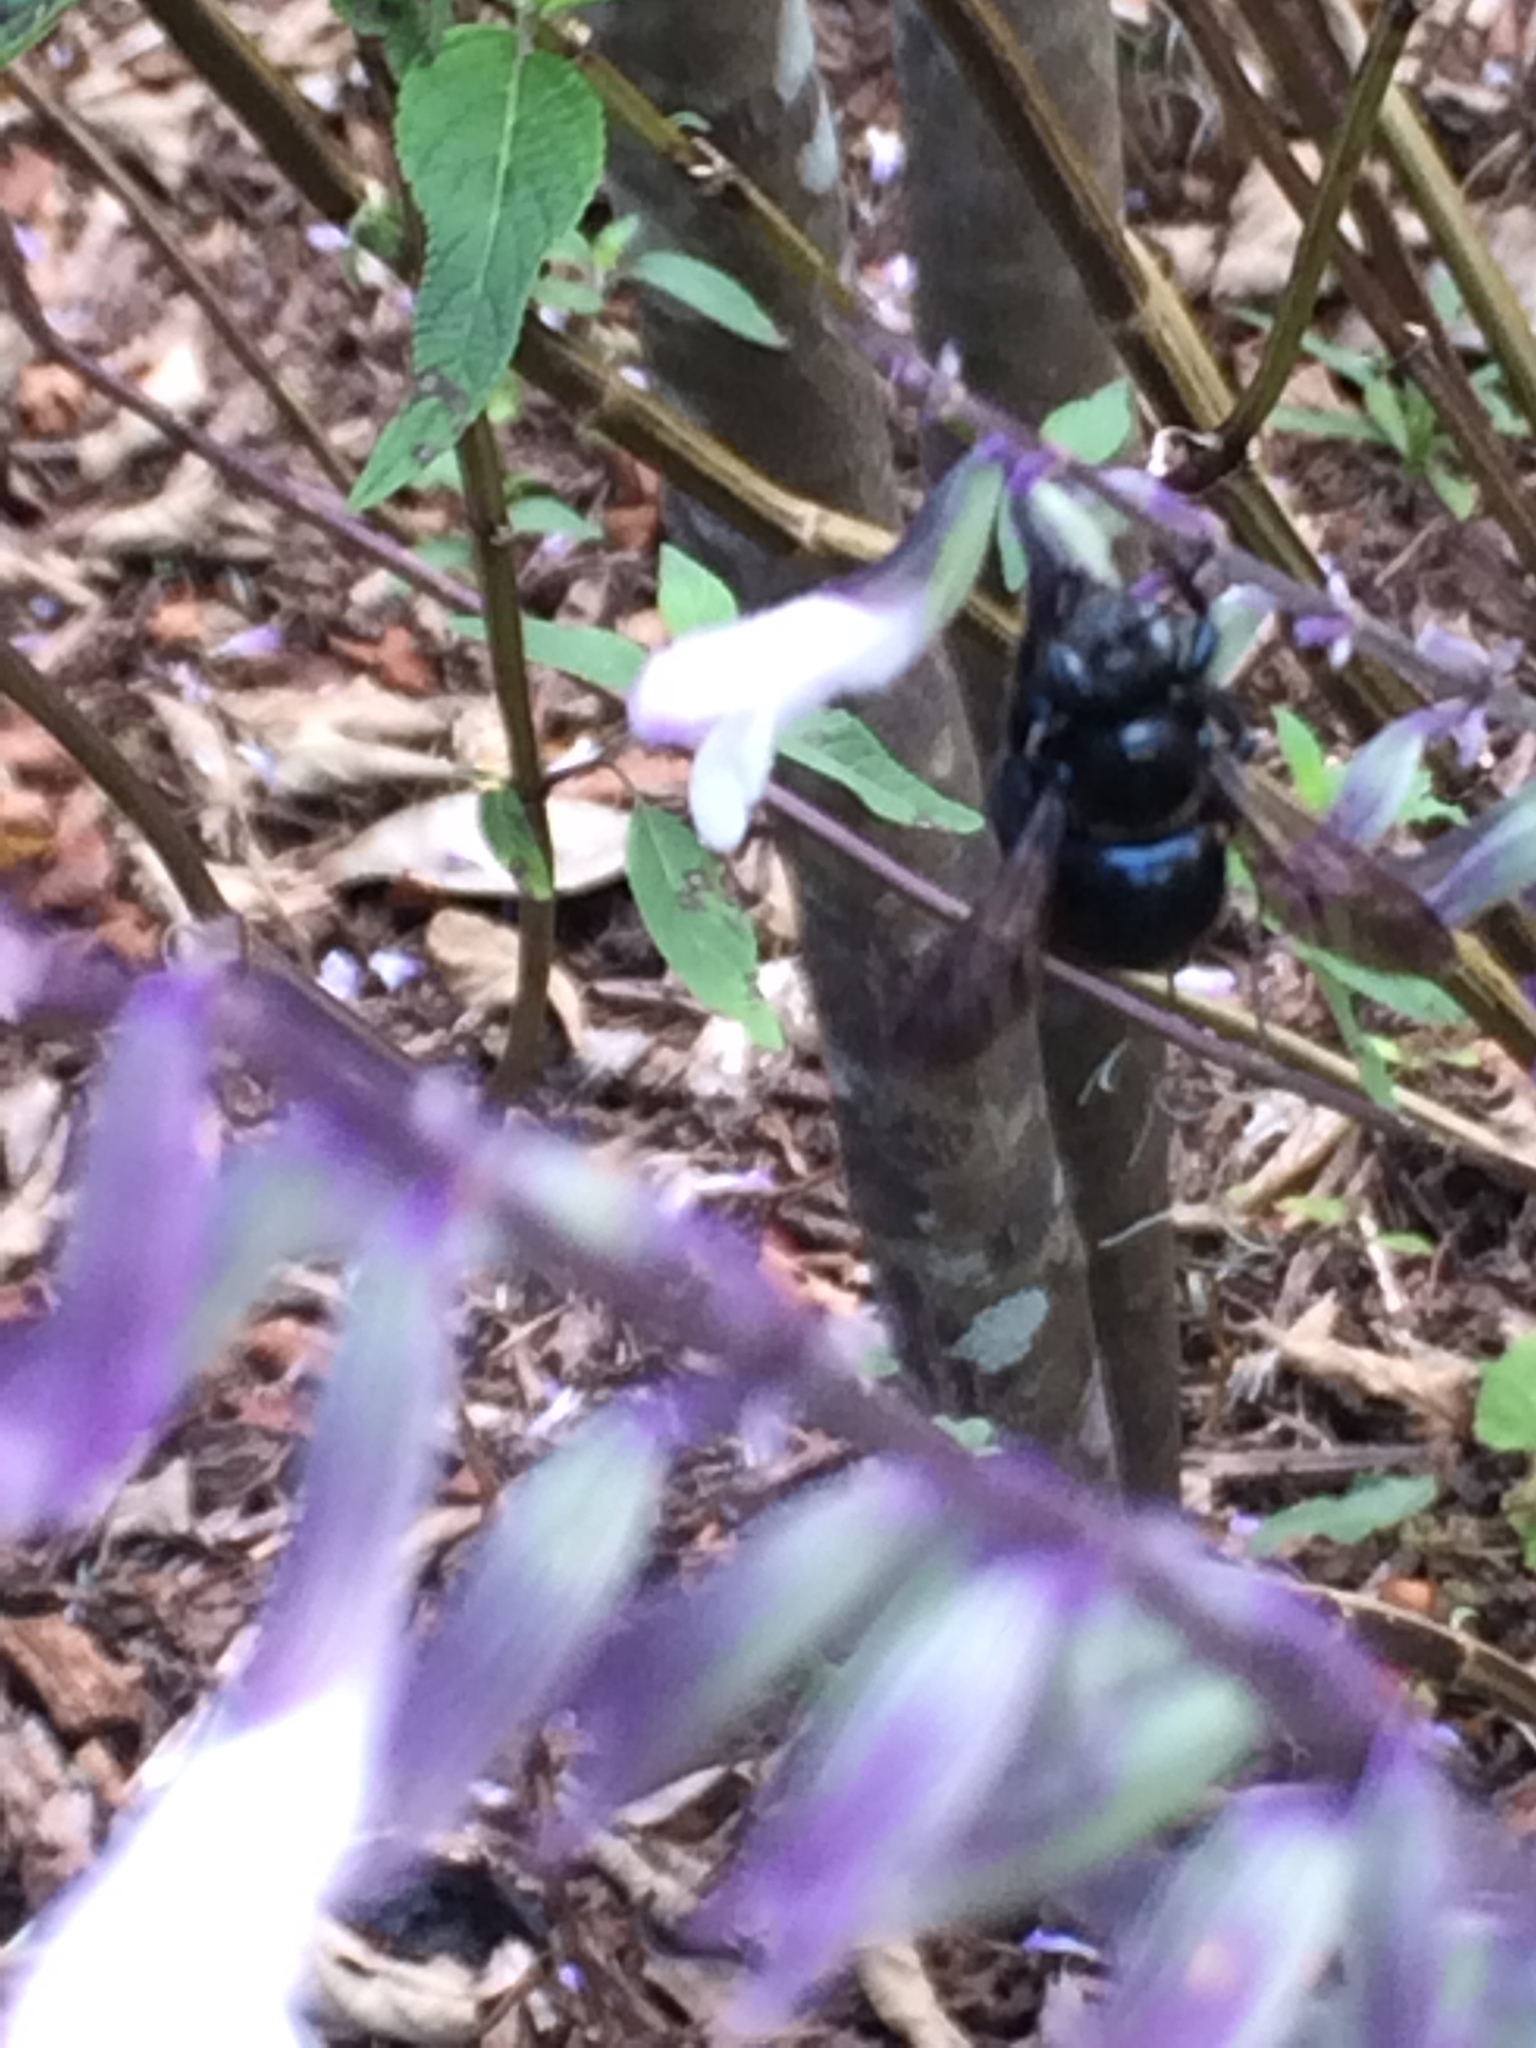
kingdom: Animalia
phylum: Arthropoda
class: Insecta
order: Hymenoptera
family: Apidae
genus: Xylocopa
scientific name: Xylocopa micans
